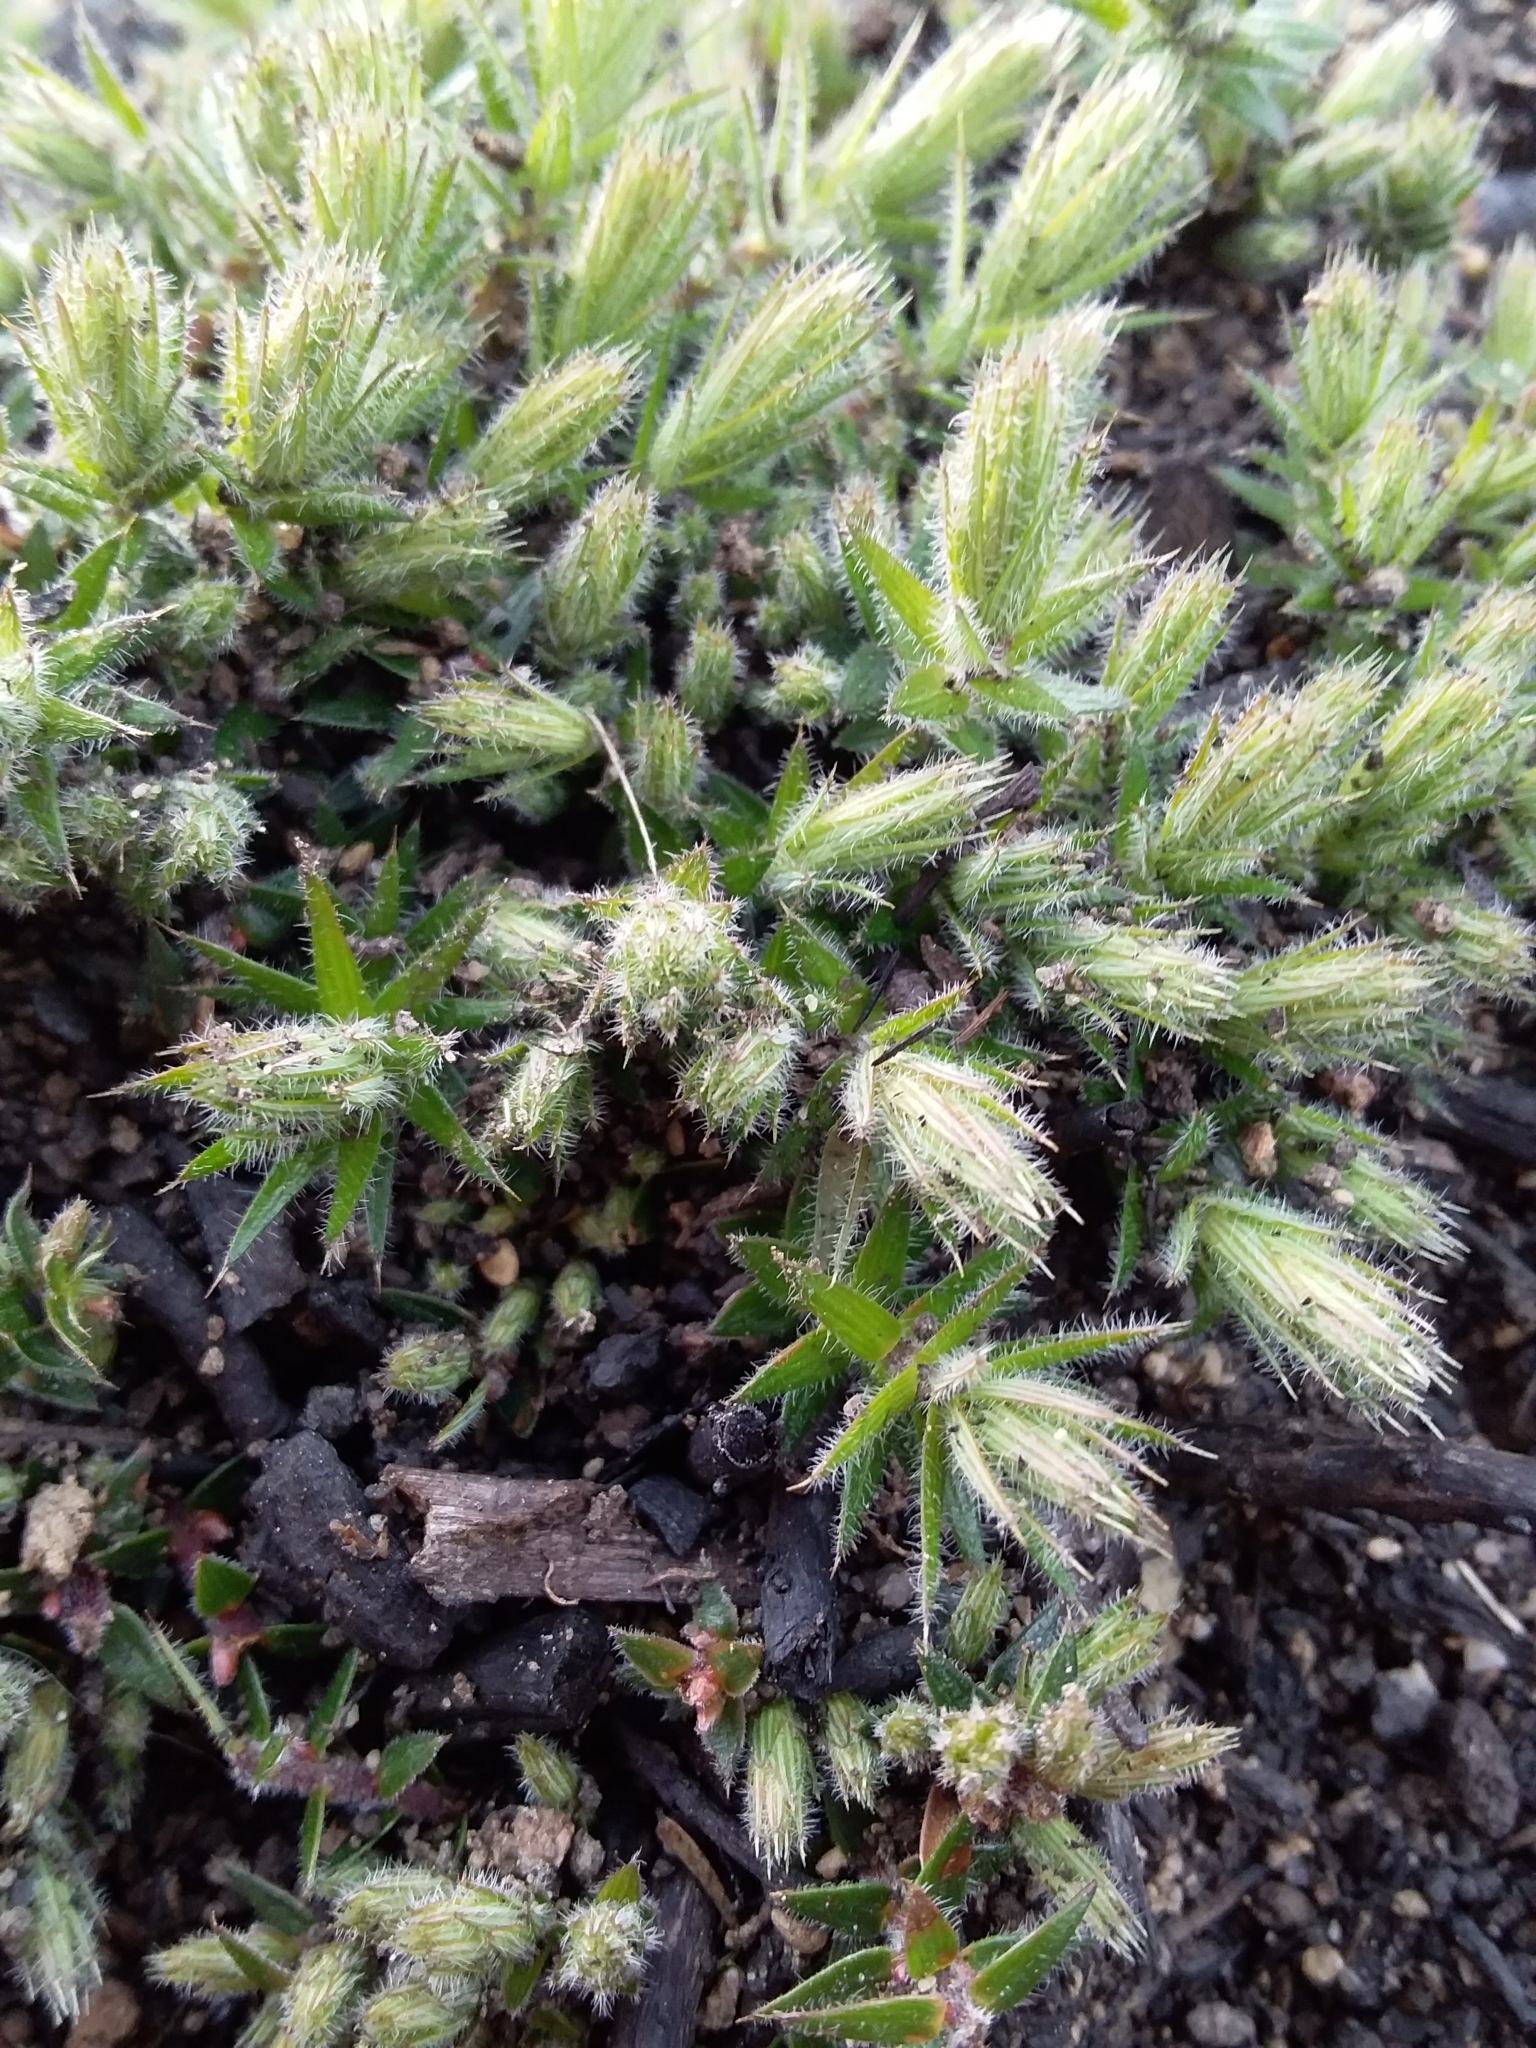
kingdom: Plantae
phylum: Tracheophyta
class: Magnoliopsida
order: Ericales
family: Ericaceae
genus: Acrotriche
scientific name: Acrotriche serrulata
